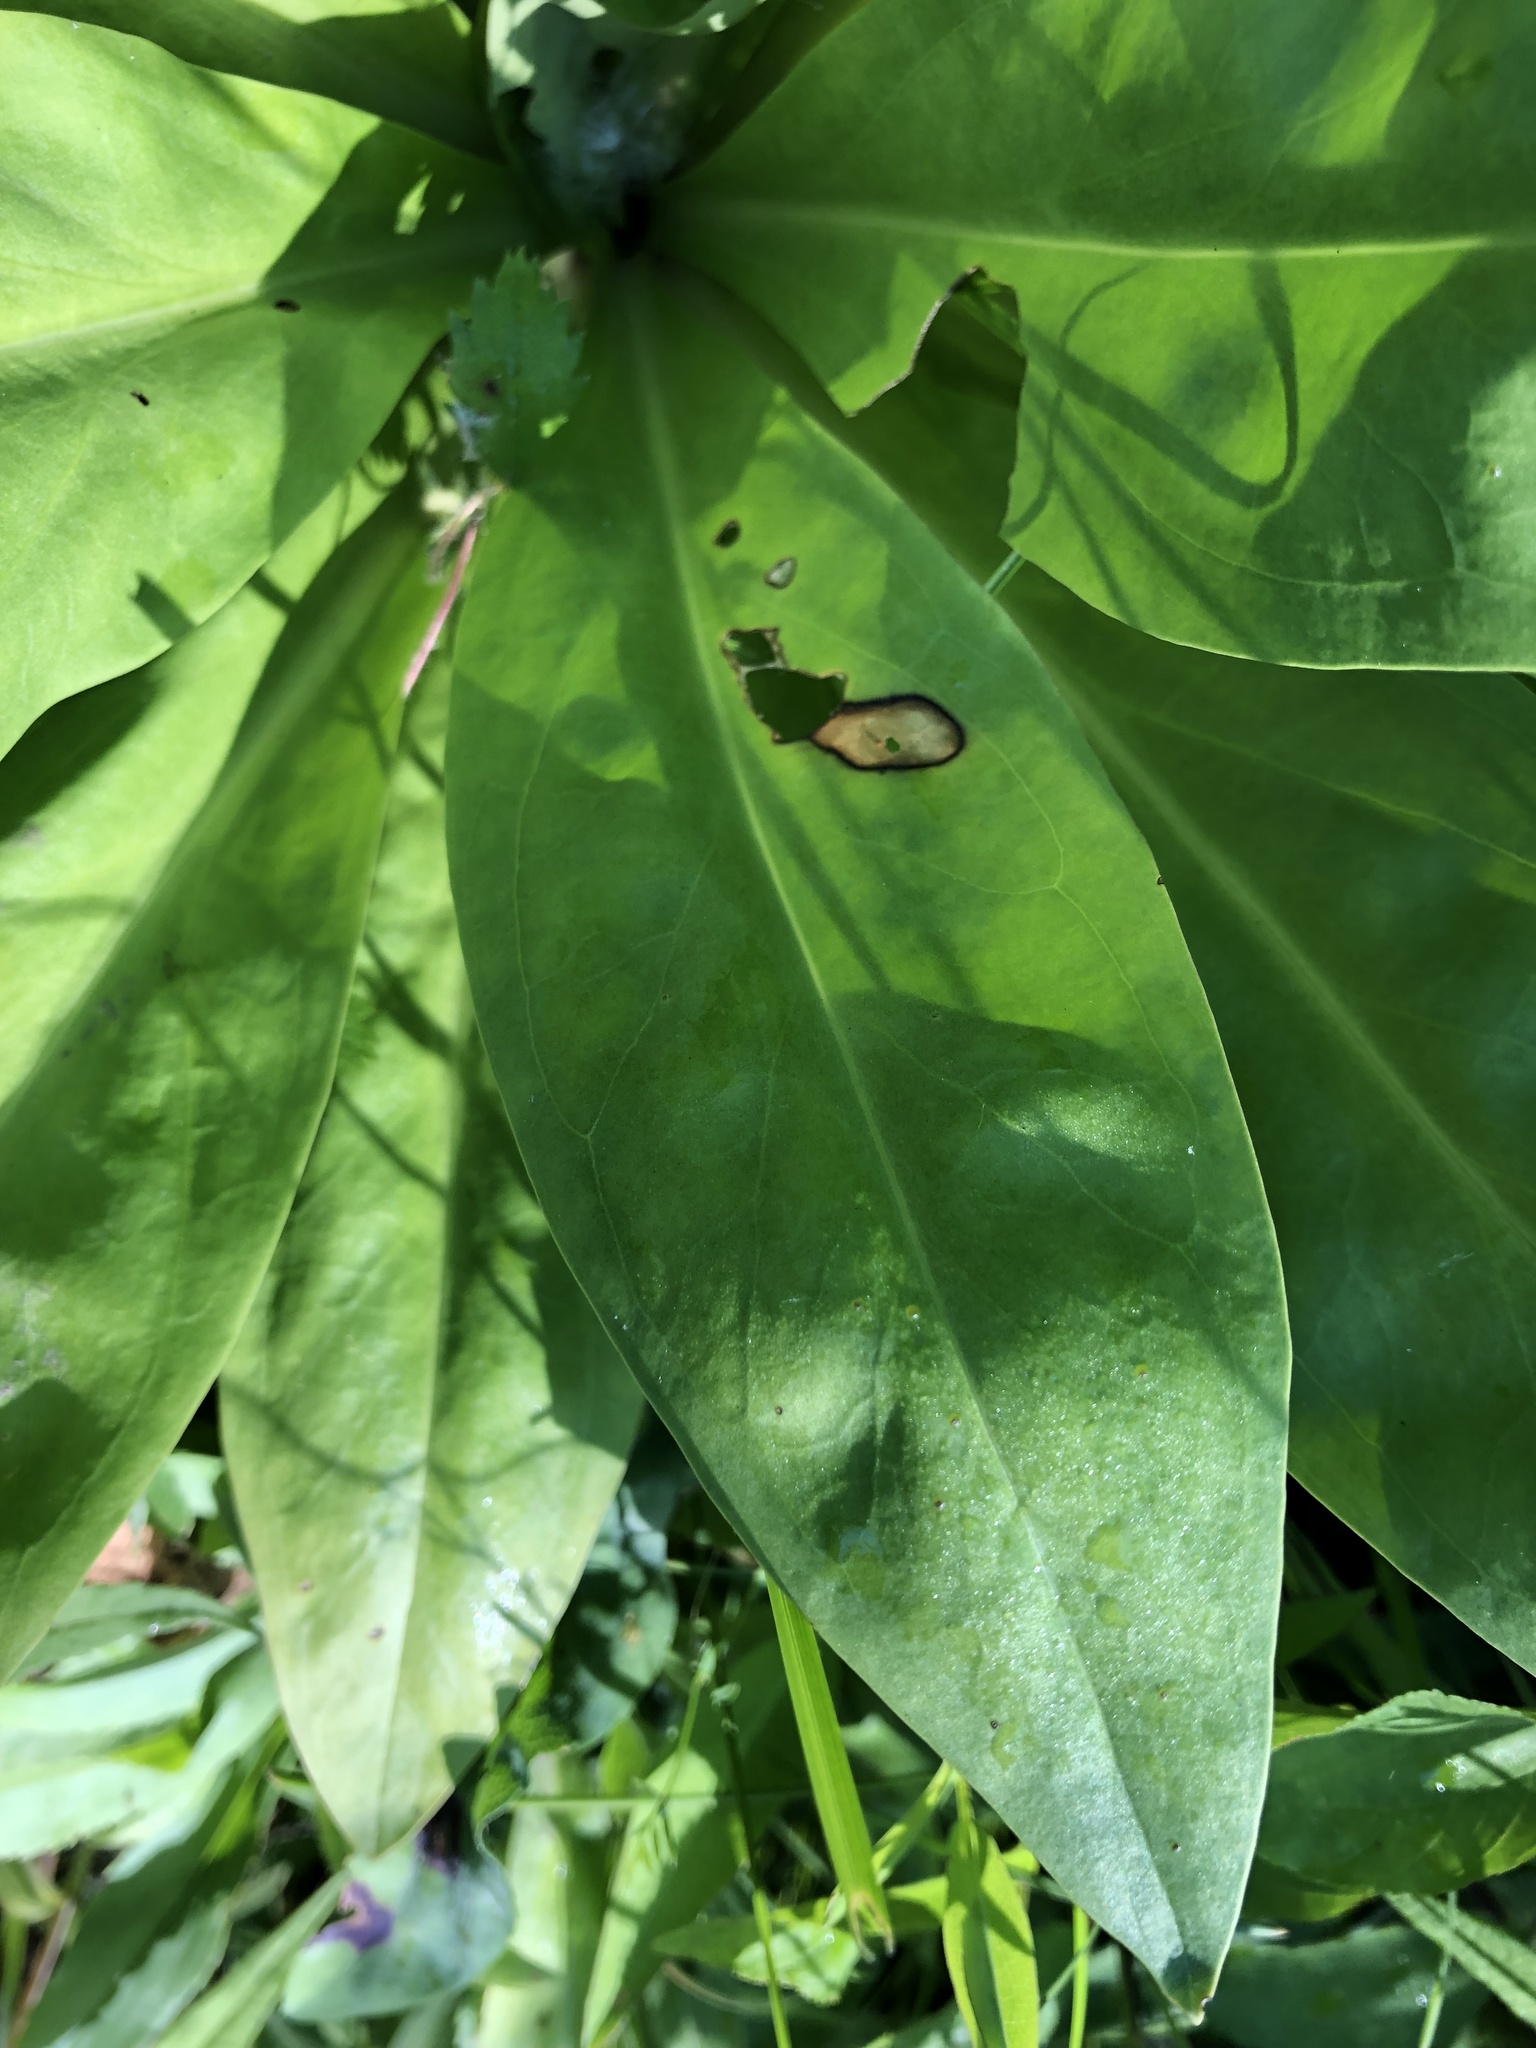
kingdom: Plantae
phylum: Tracheophyta
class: Magnoliopsida
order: Gentianales
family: Gentianaceae
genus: Frasera
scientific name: Frasera caroliniensis
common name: American columbo
